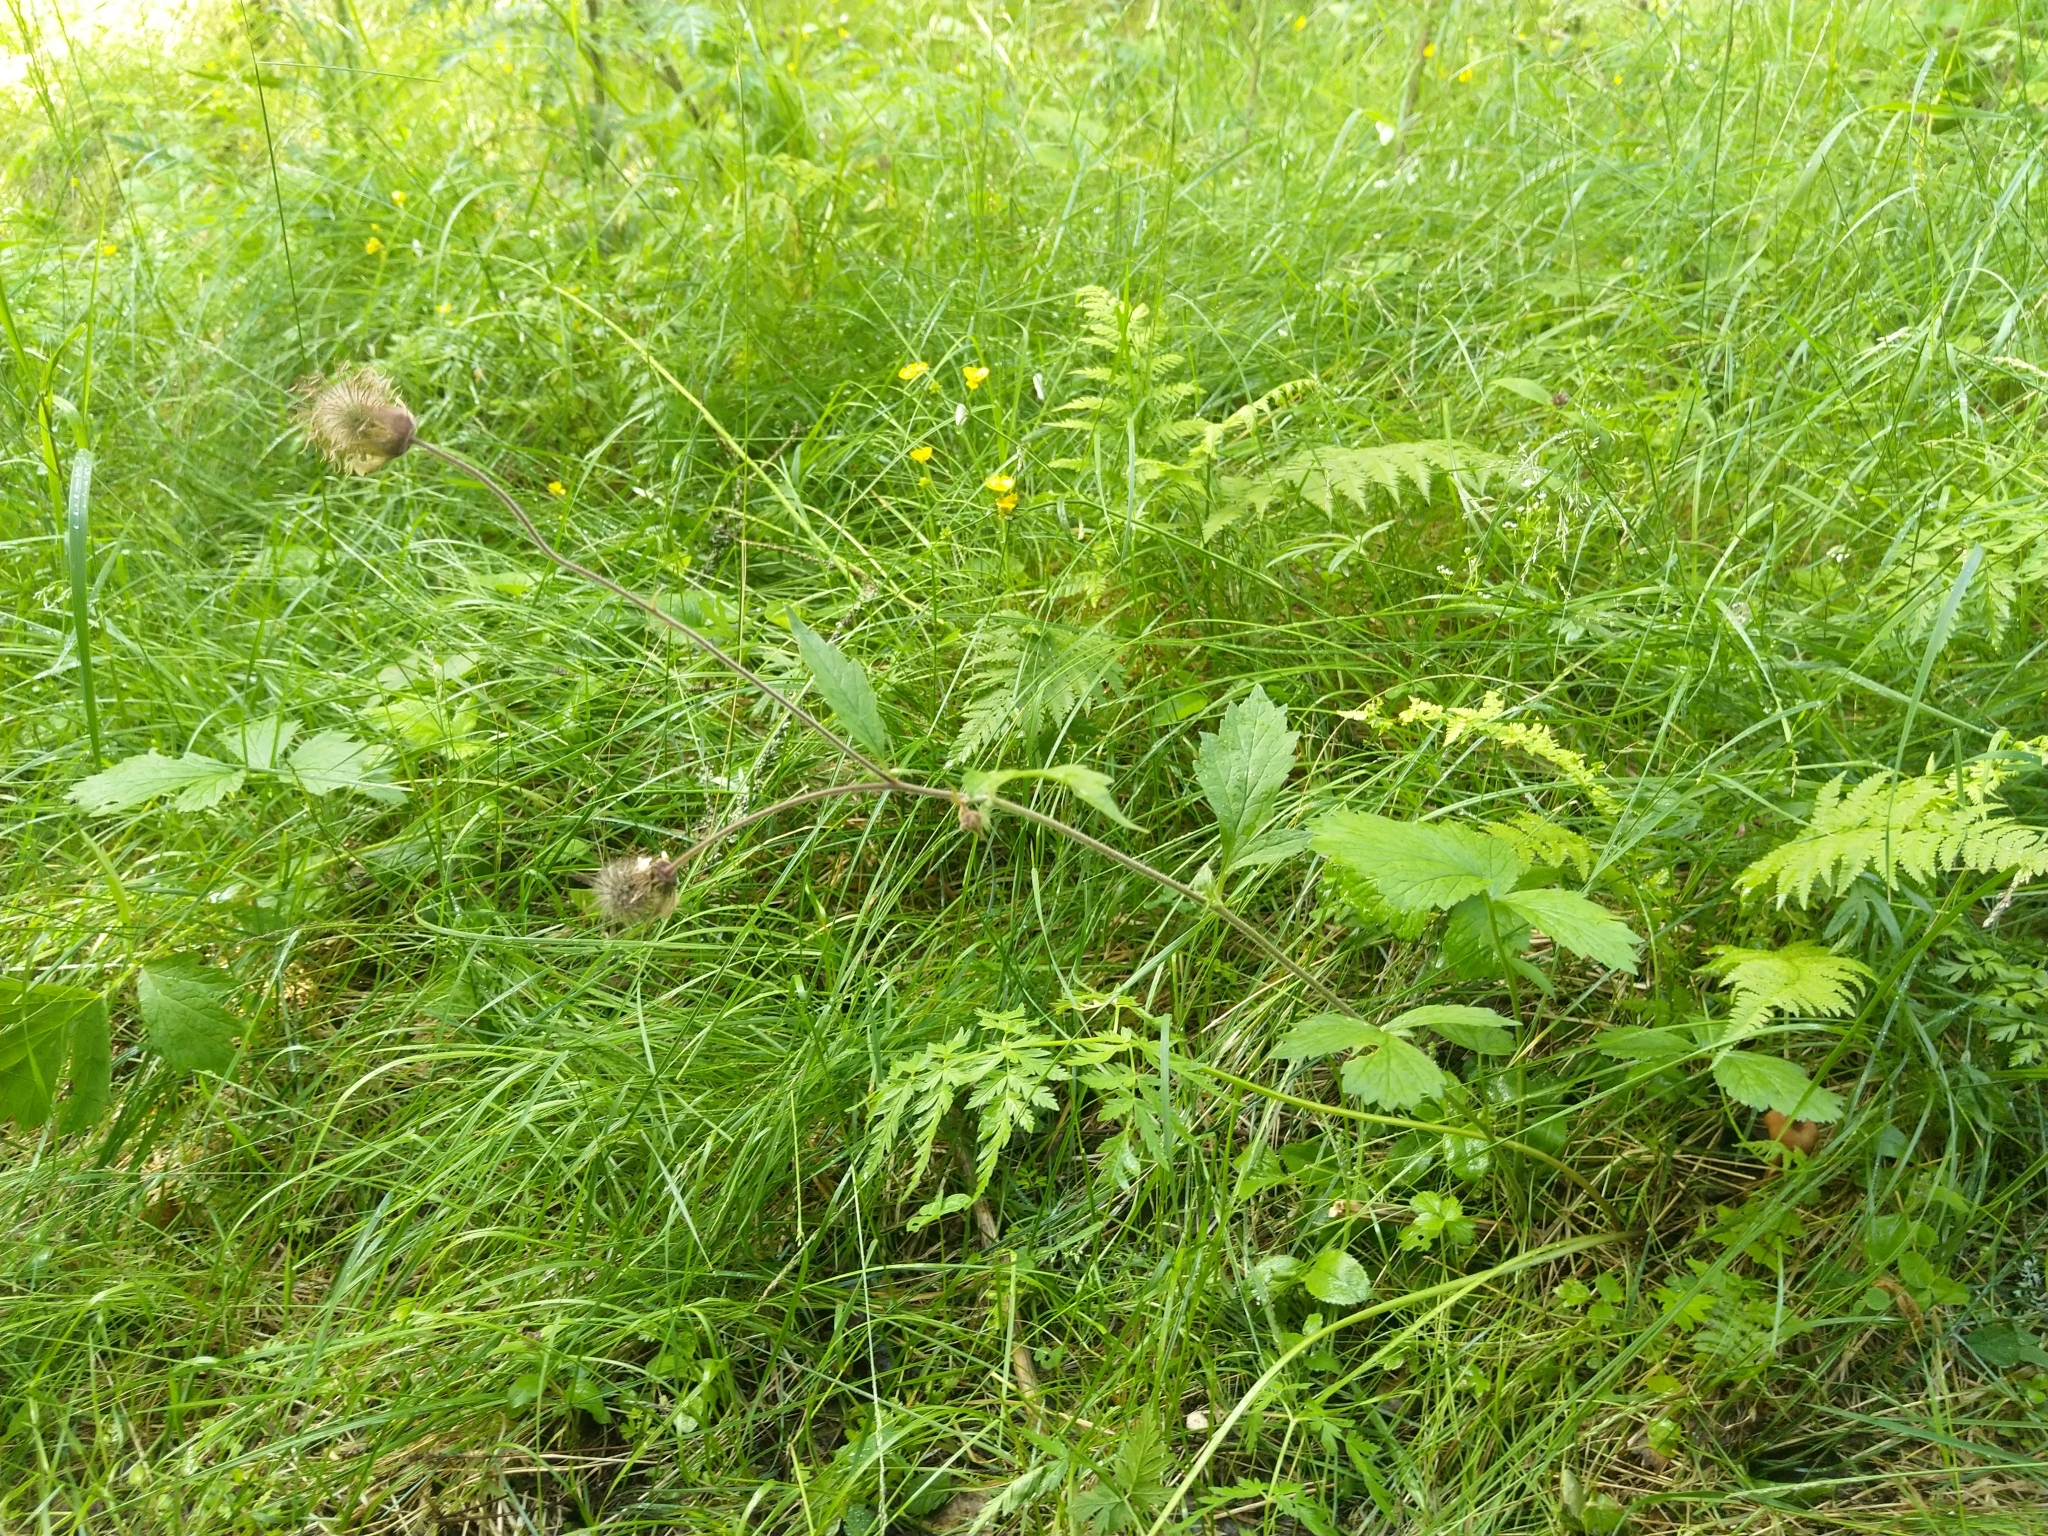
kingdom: Plantae
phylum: Tracheophyta
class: Magnoliopsida
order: Rosales
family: Rosaceae
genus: Geum
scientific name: Geum rivale
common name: Water avens
